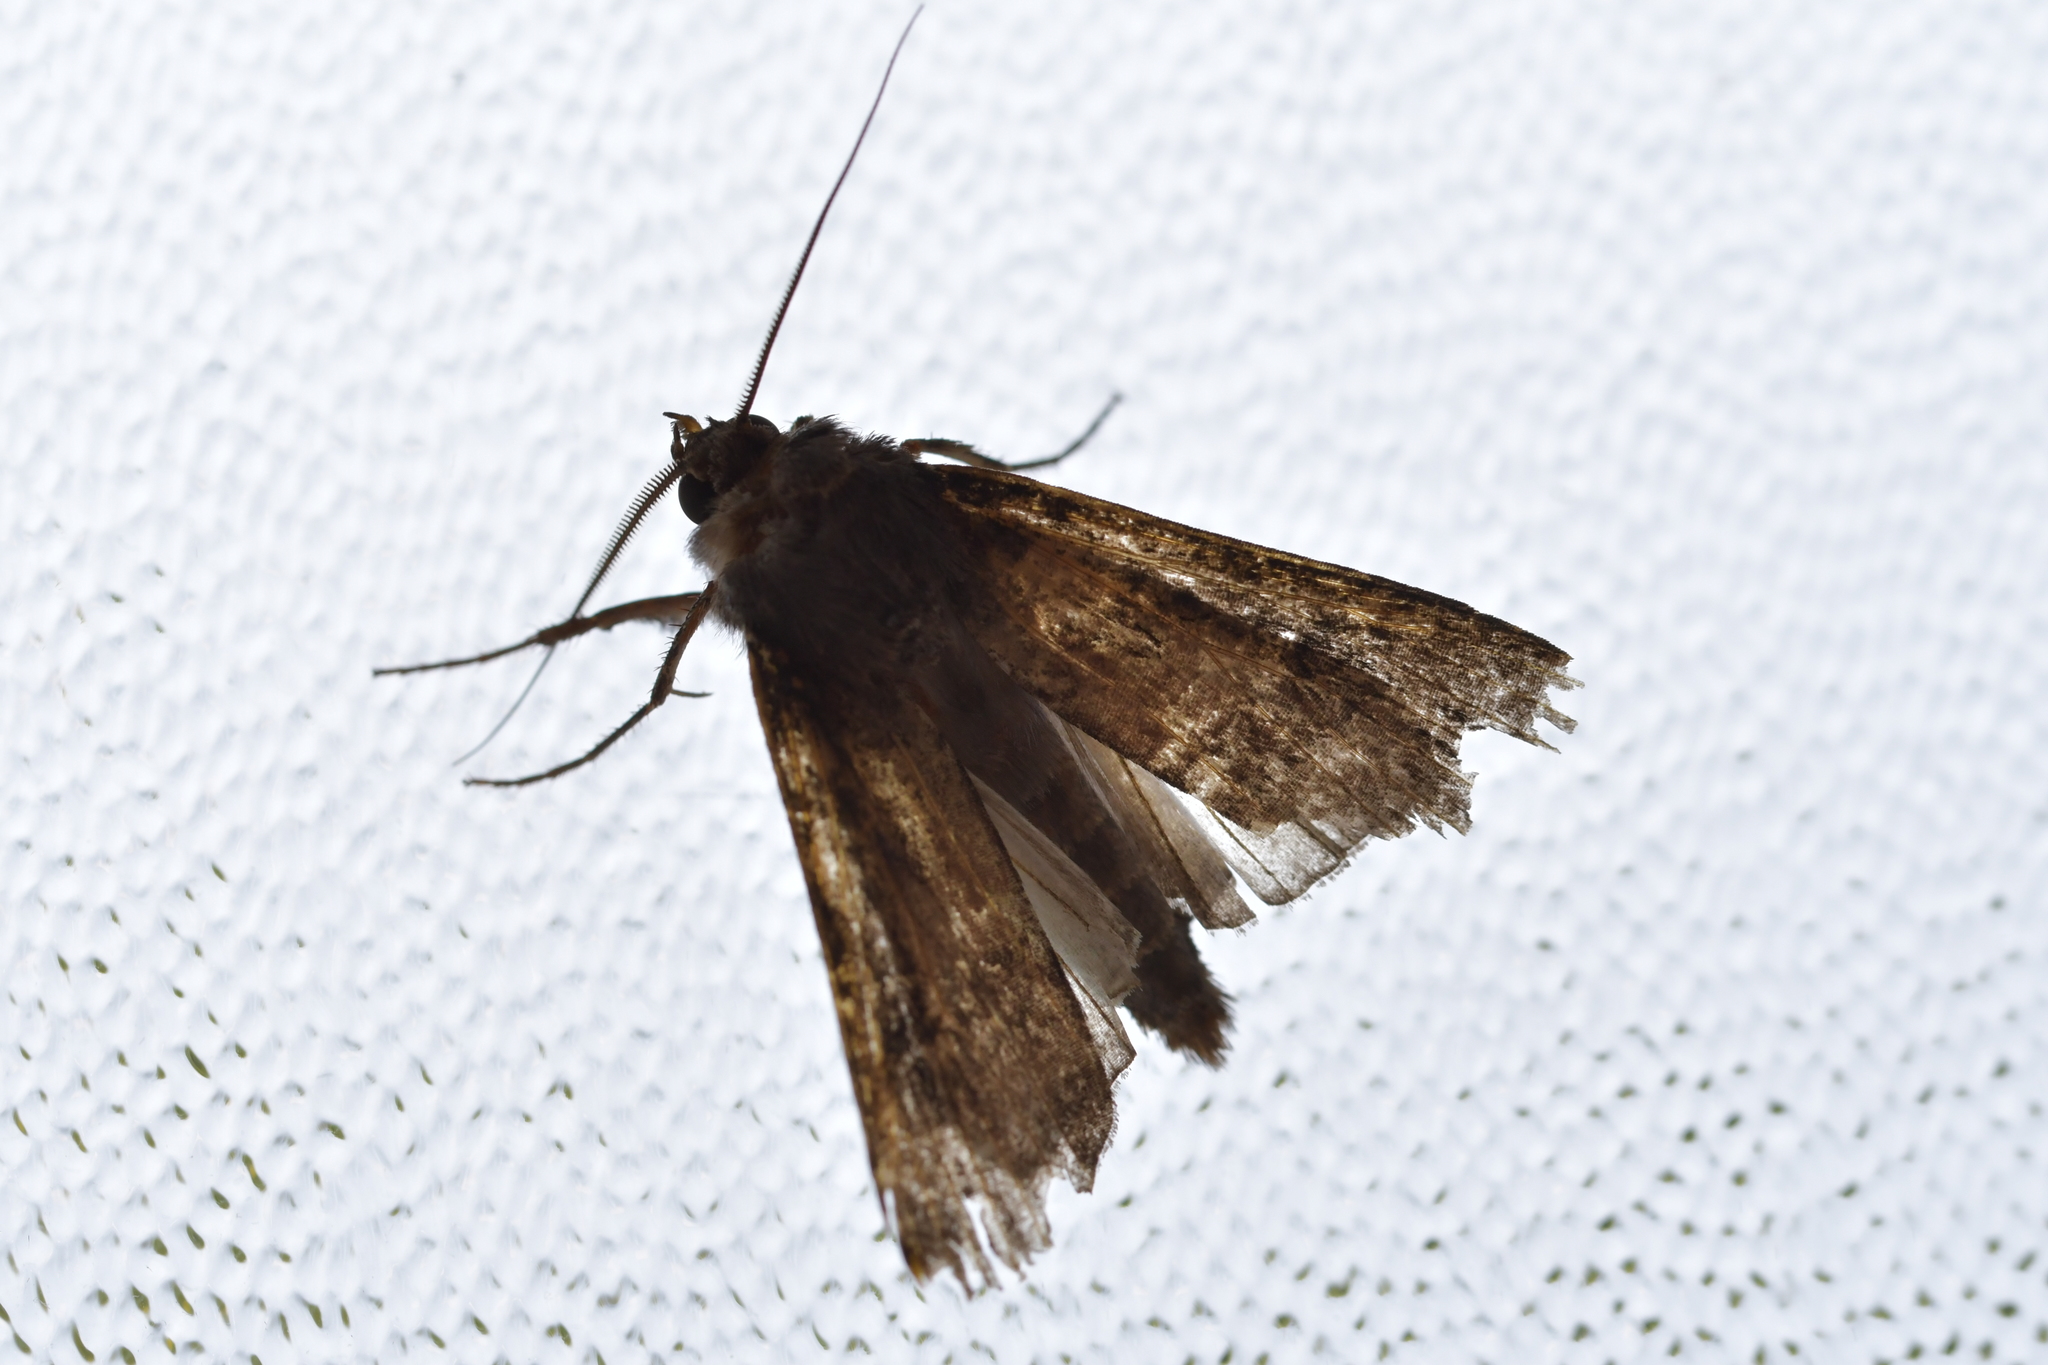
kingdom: Animalia
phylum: Arthropoda
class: Insecta
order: Lepidoptera
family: Noctuidae
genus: Agrotis
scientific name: Agrotis ipsilon
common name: Dark sword-grass
